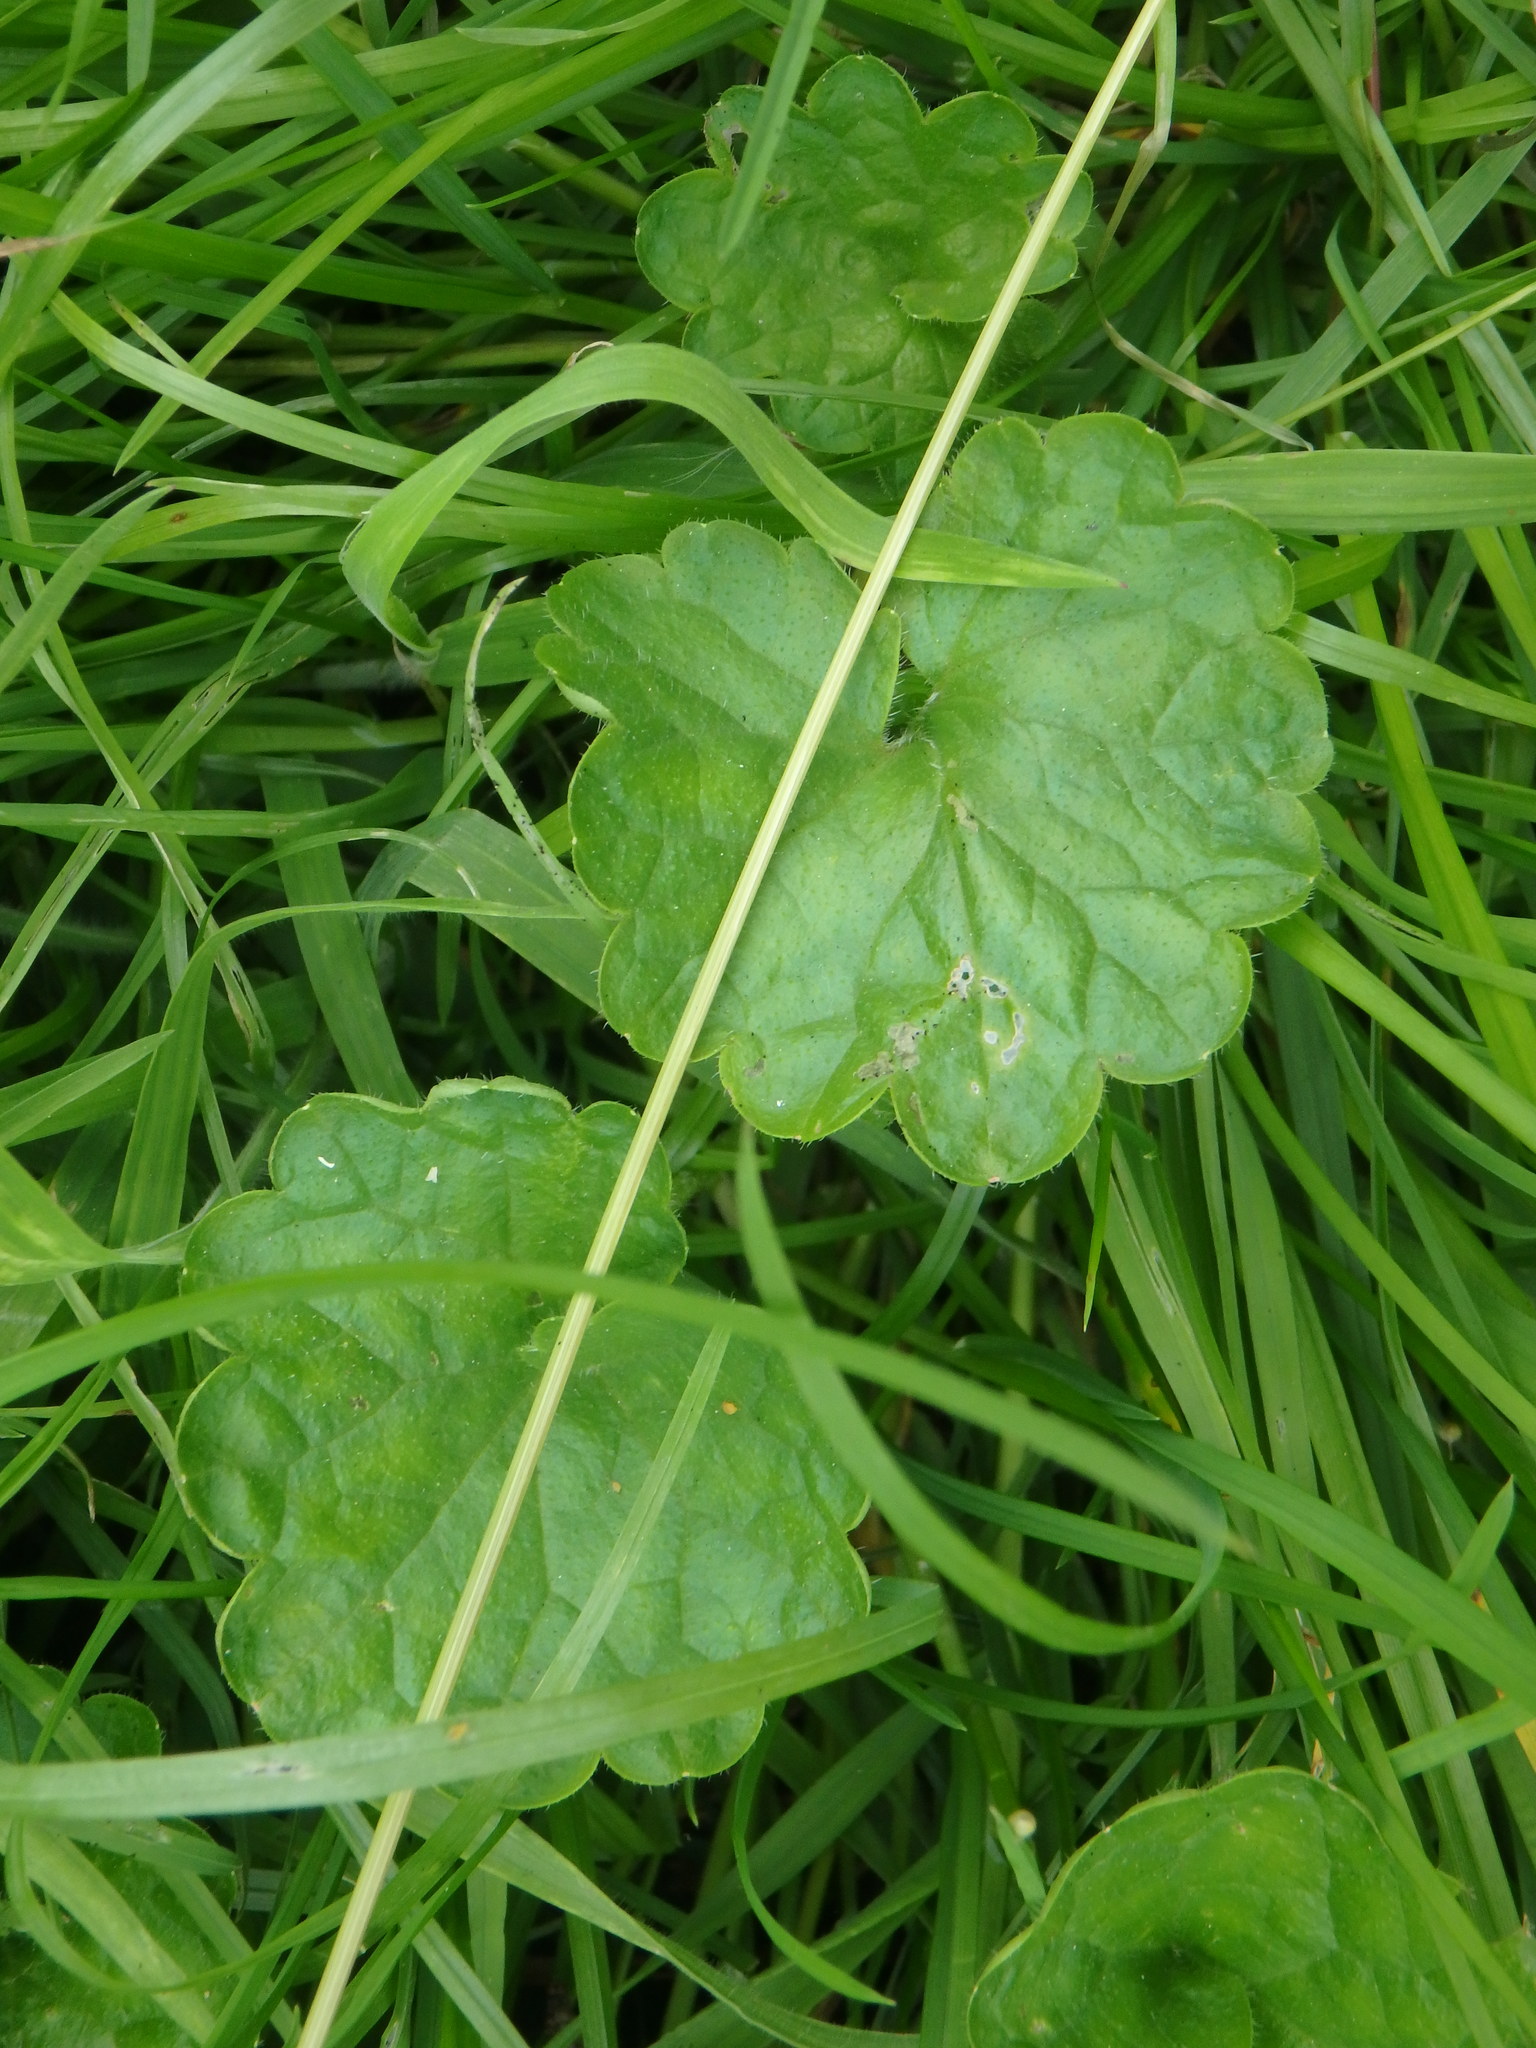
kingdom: Plantae
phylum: Tracheophyta
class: Magnoliopsida
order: Lamiales
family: Lamiaceae
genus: Glechoma
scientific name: Glechoma hederacea
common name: Ground ivy
